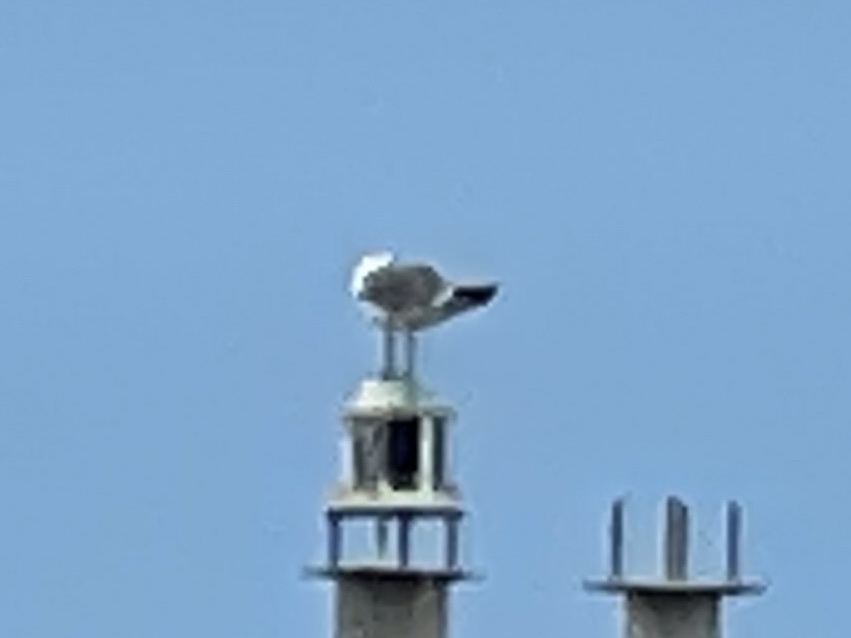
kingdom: Animalia
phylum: Chordata
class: Aves
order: Charadriiformes
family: Laridae
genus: Leucophaeus
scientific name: Leucophaeus atricilla
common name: Laughing gull
